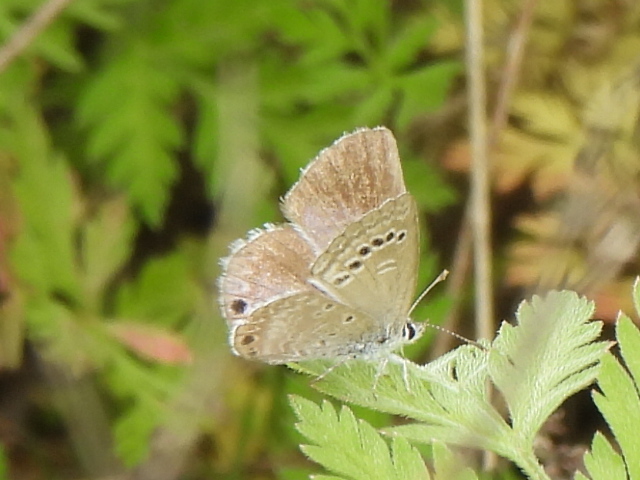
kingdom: Animalia
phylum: Arthropoda
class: Insecta
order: Lepidoptera
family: Lycaenidae
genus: Echinargus
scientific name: Echinargus isola
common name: Reakirt's blue
